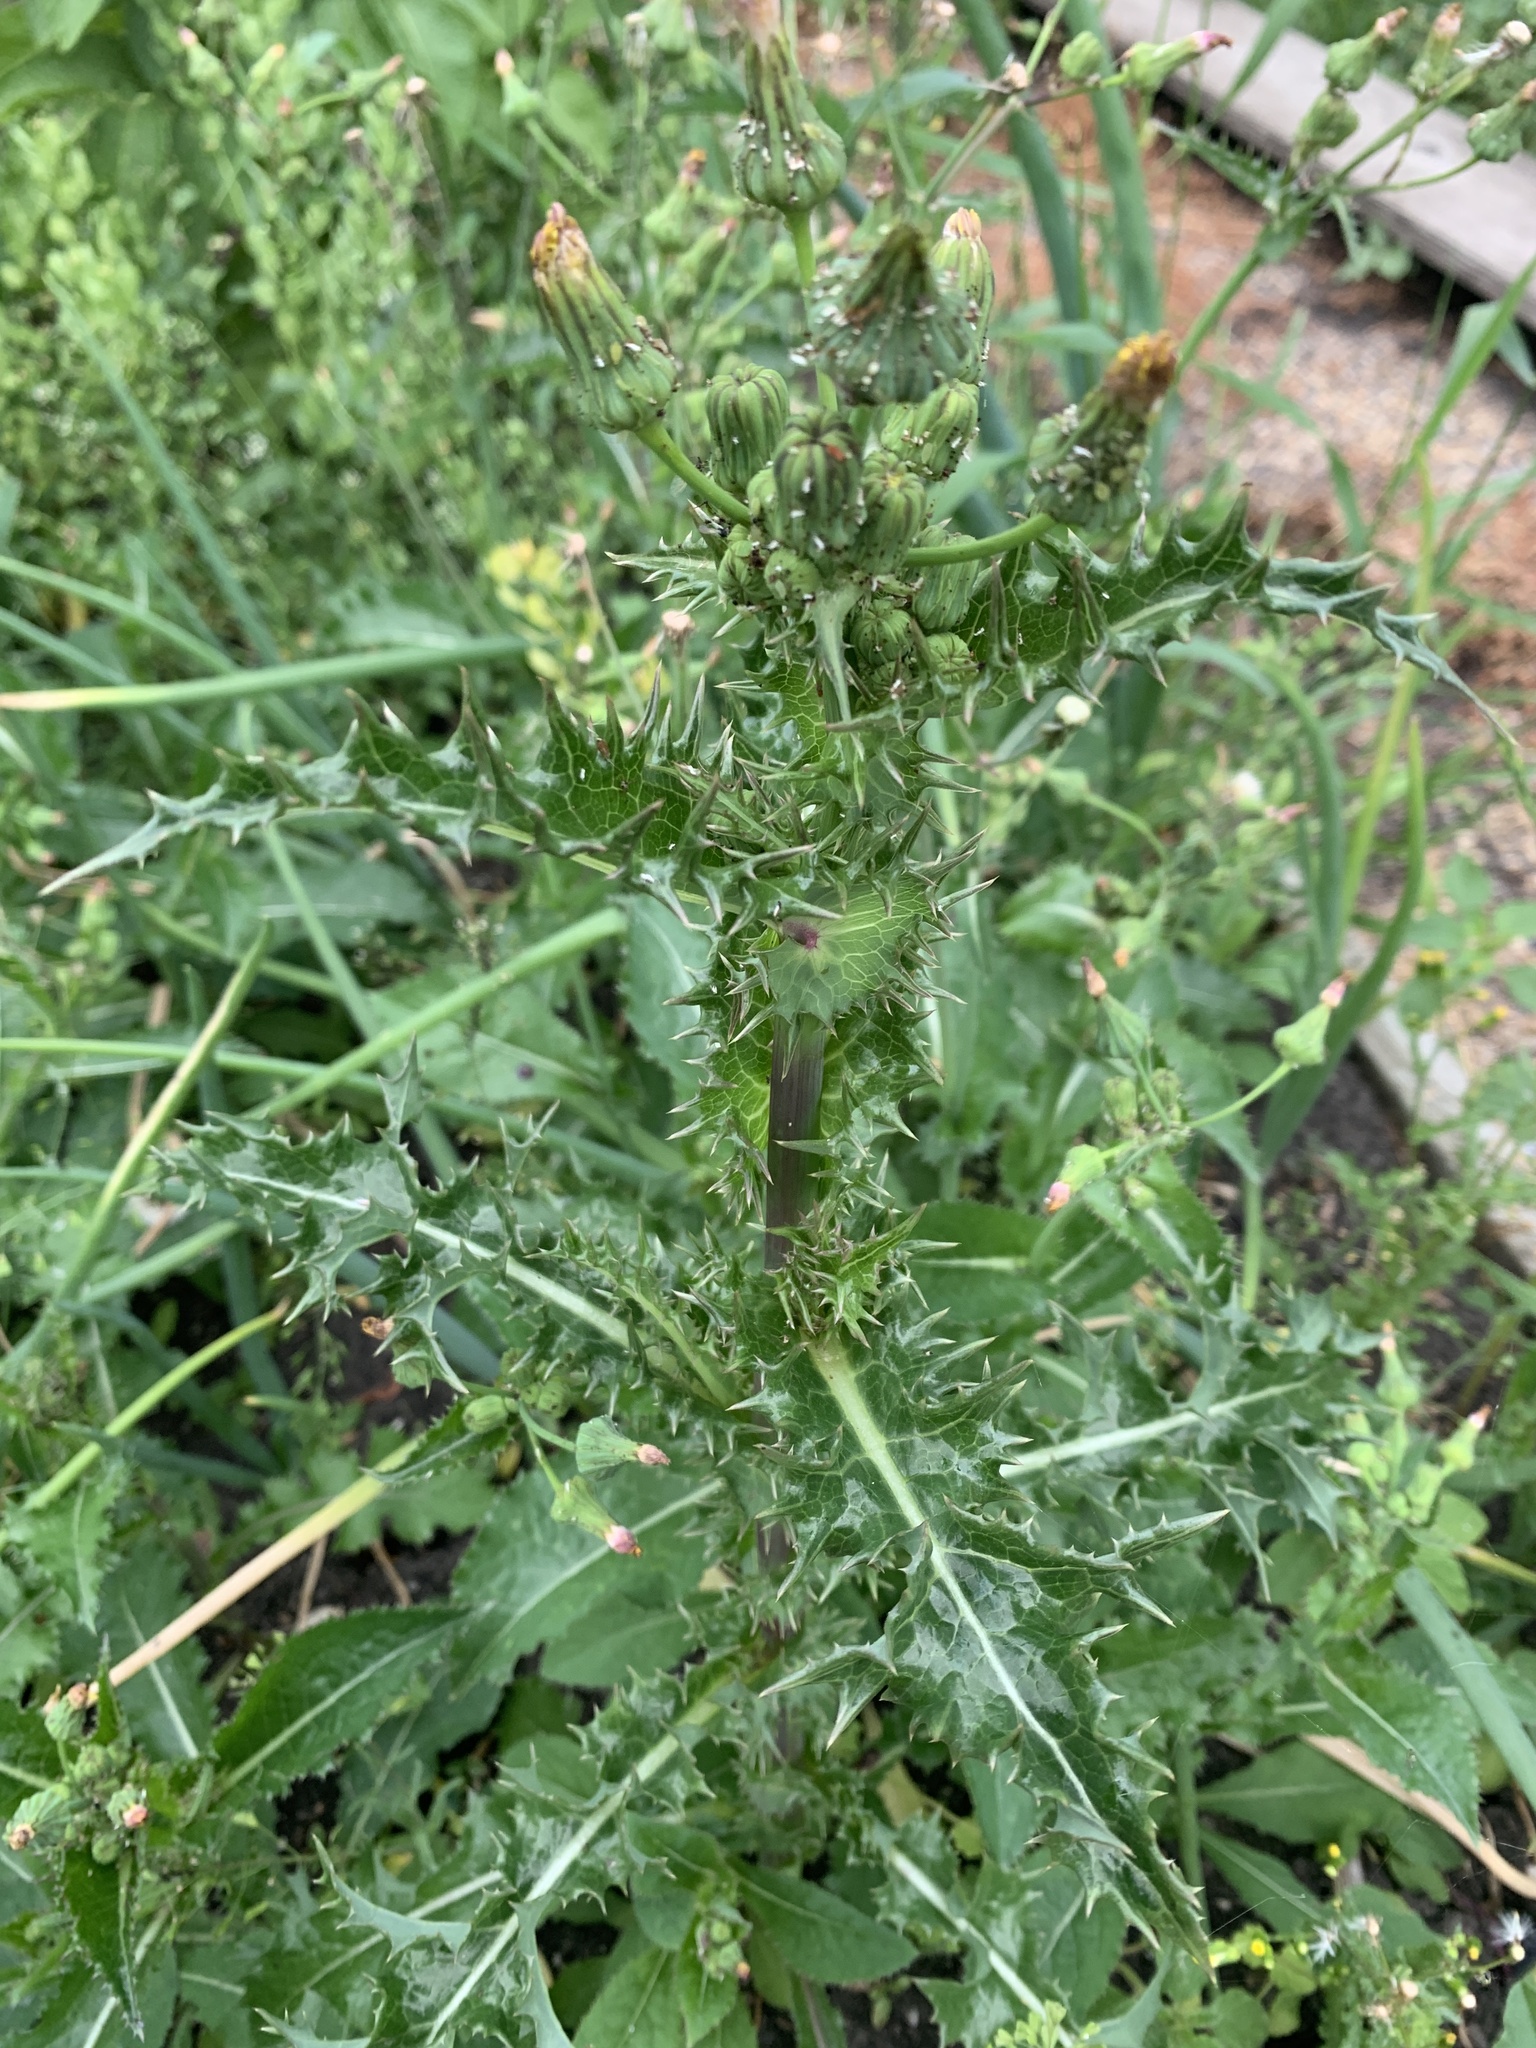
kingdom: Plantae
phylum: Tracheophyta
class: Magnoliopsida
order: Asterales
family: Asteraceae
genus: Sonchus
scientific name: Sonchus asper
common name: Prickly sow-thistle
